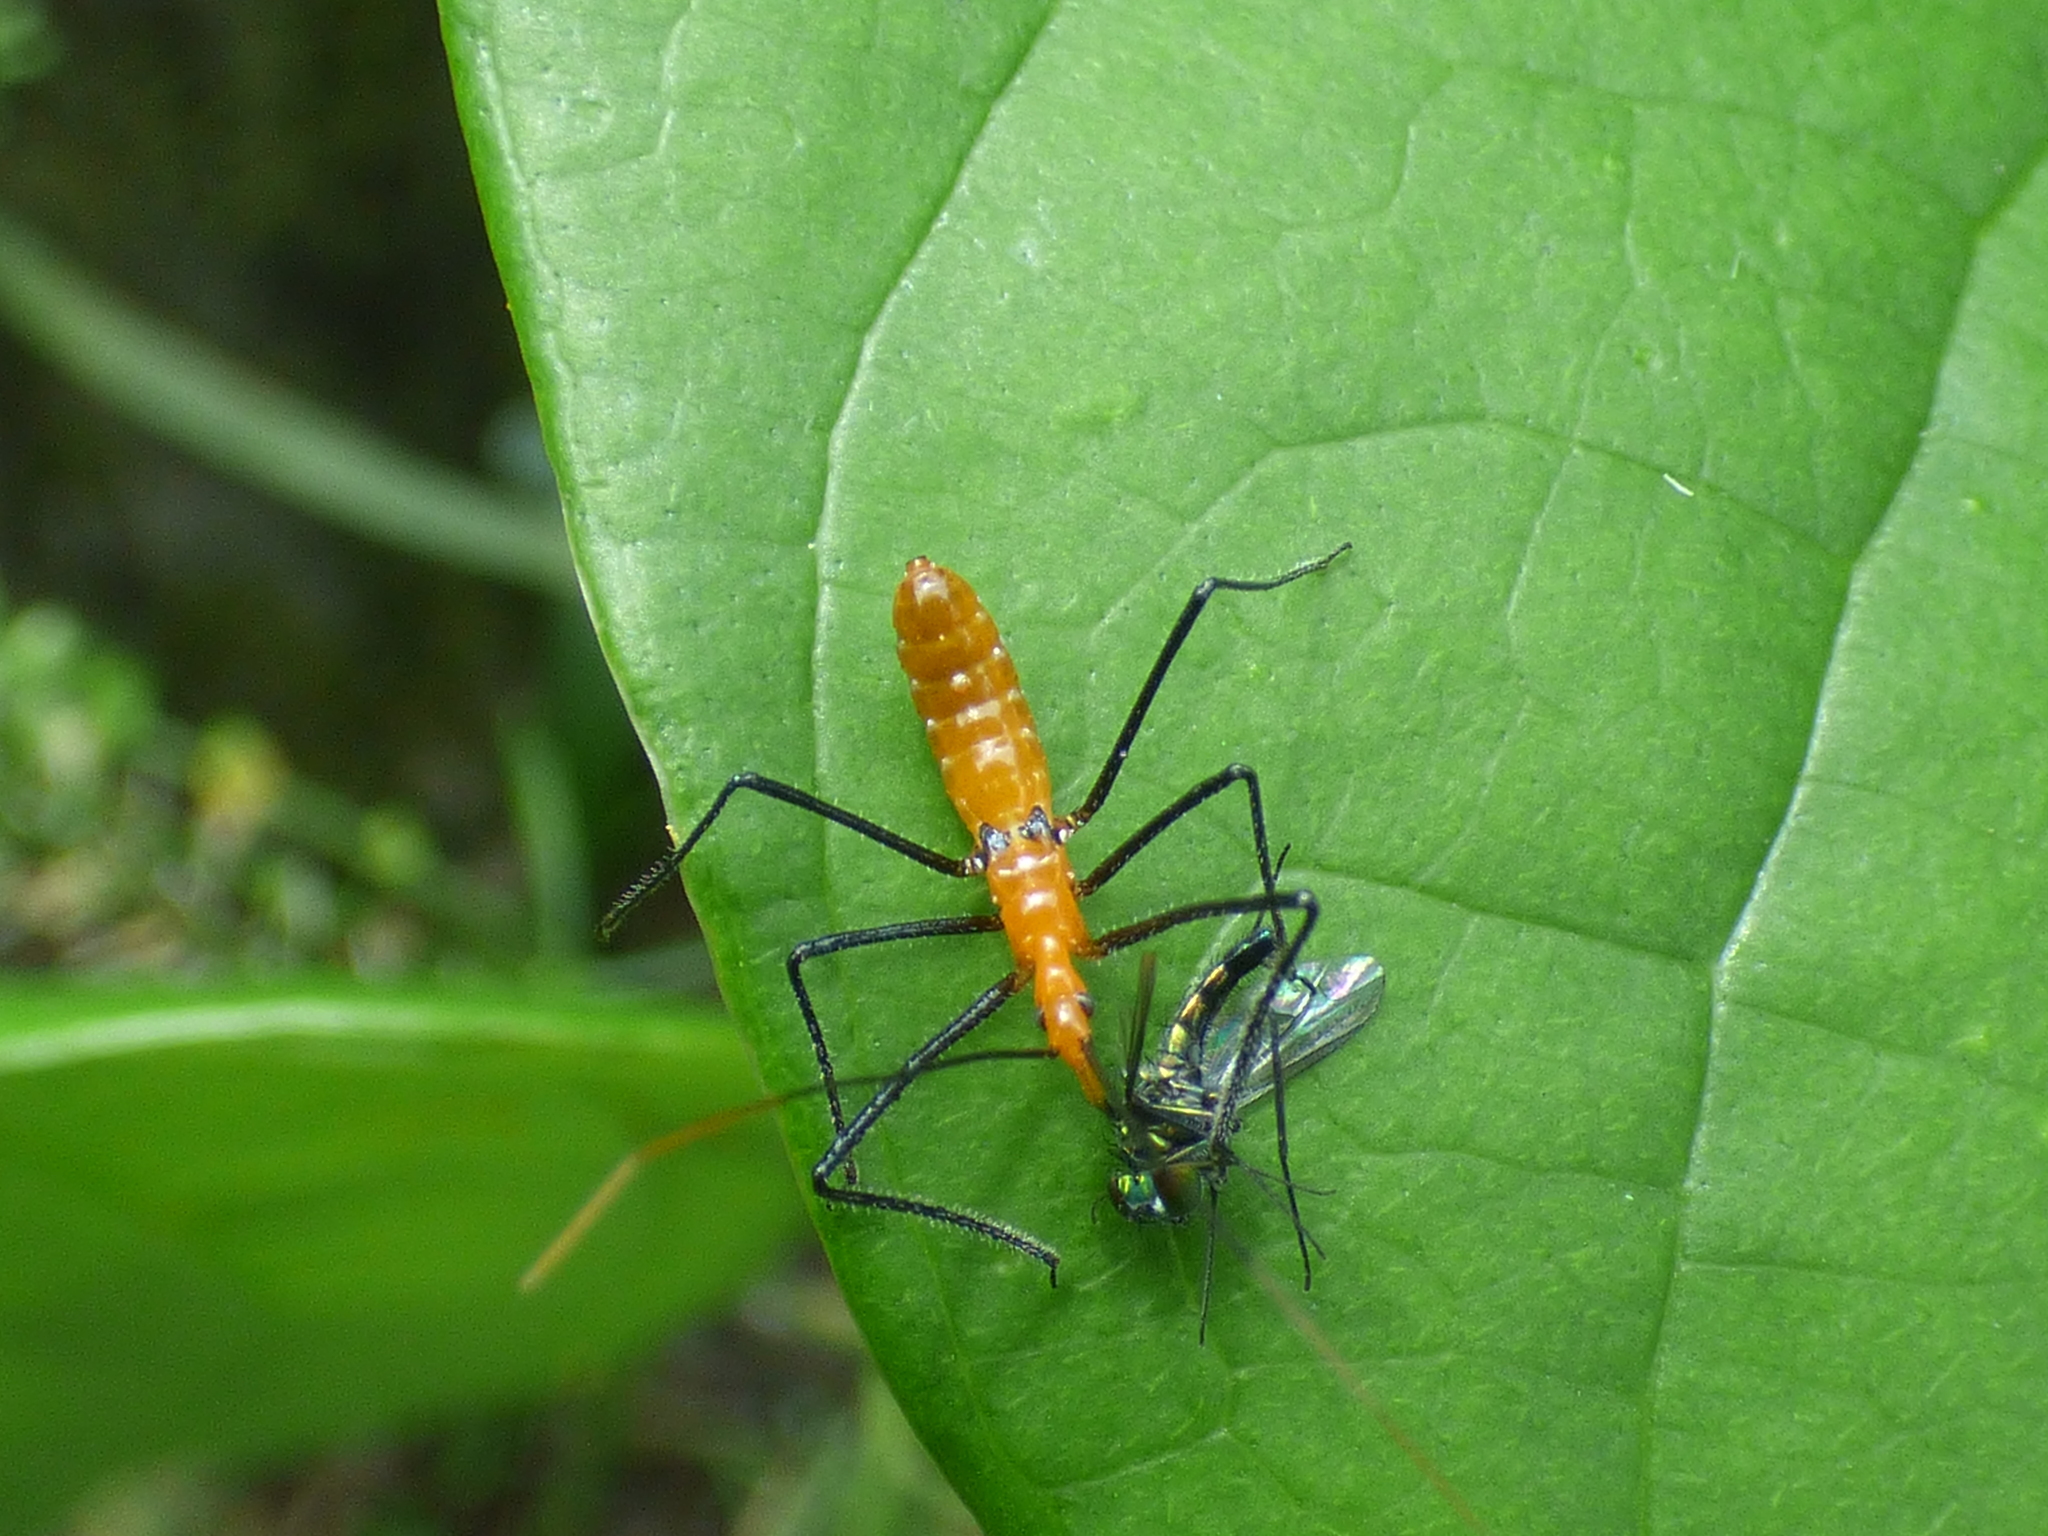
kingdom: Animalia
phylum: Arthropoda
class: Insecta
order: Hemiptera
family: Reduviidae
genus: Zelus
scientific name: Zelus longipes
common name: Milkweed assassin bug
